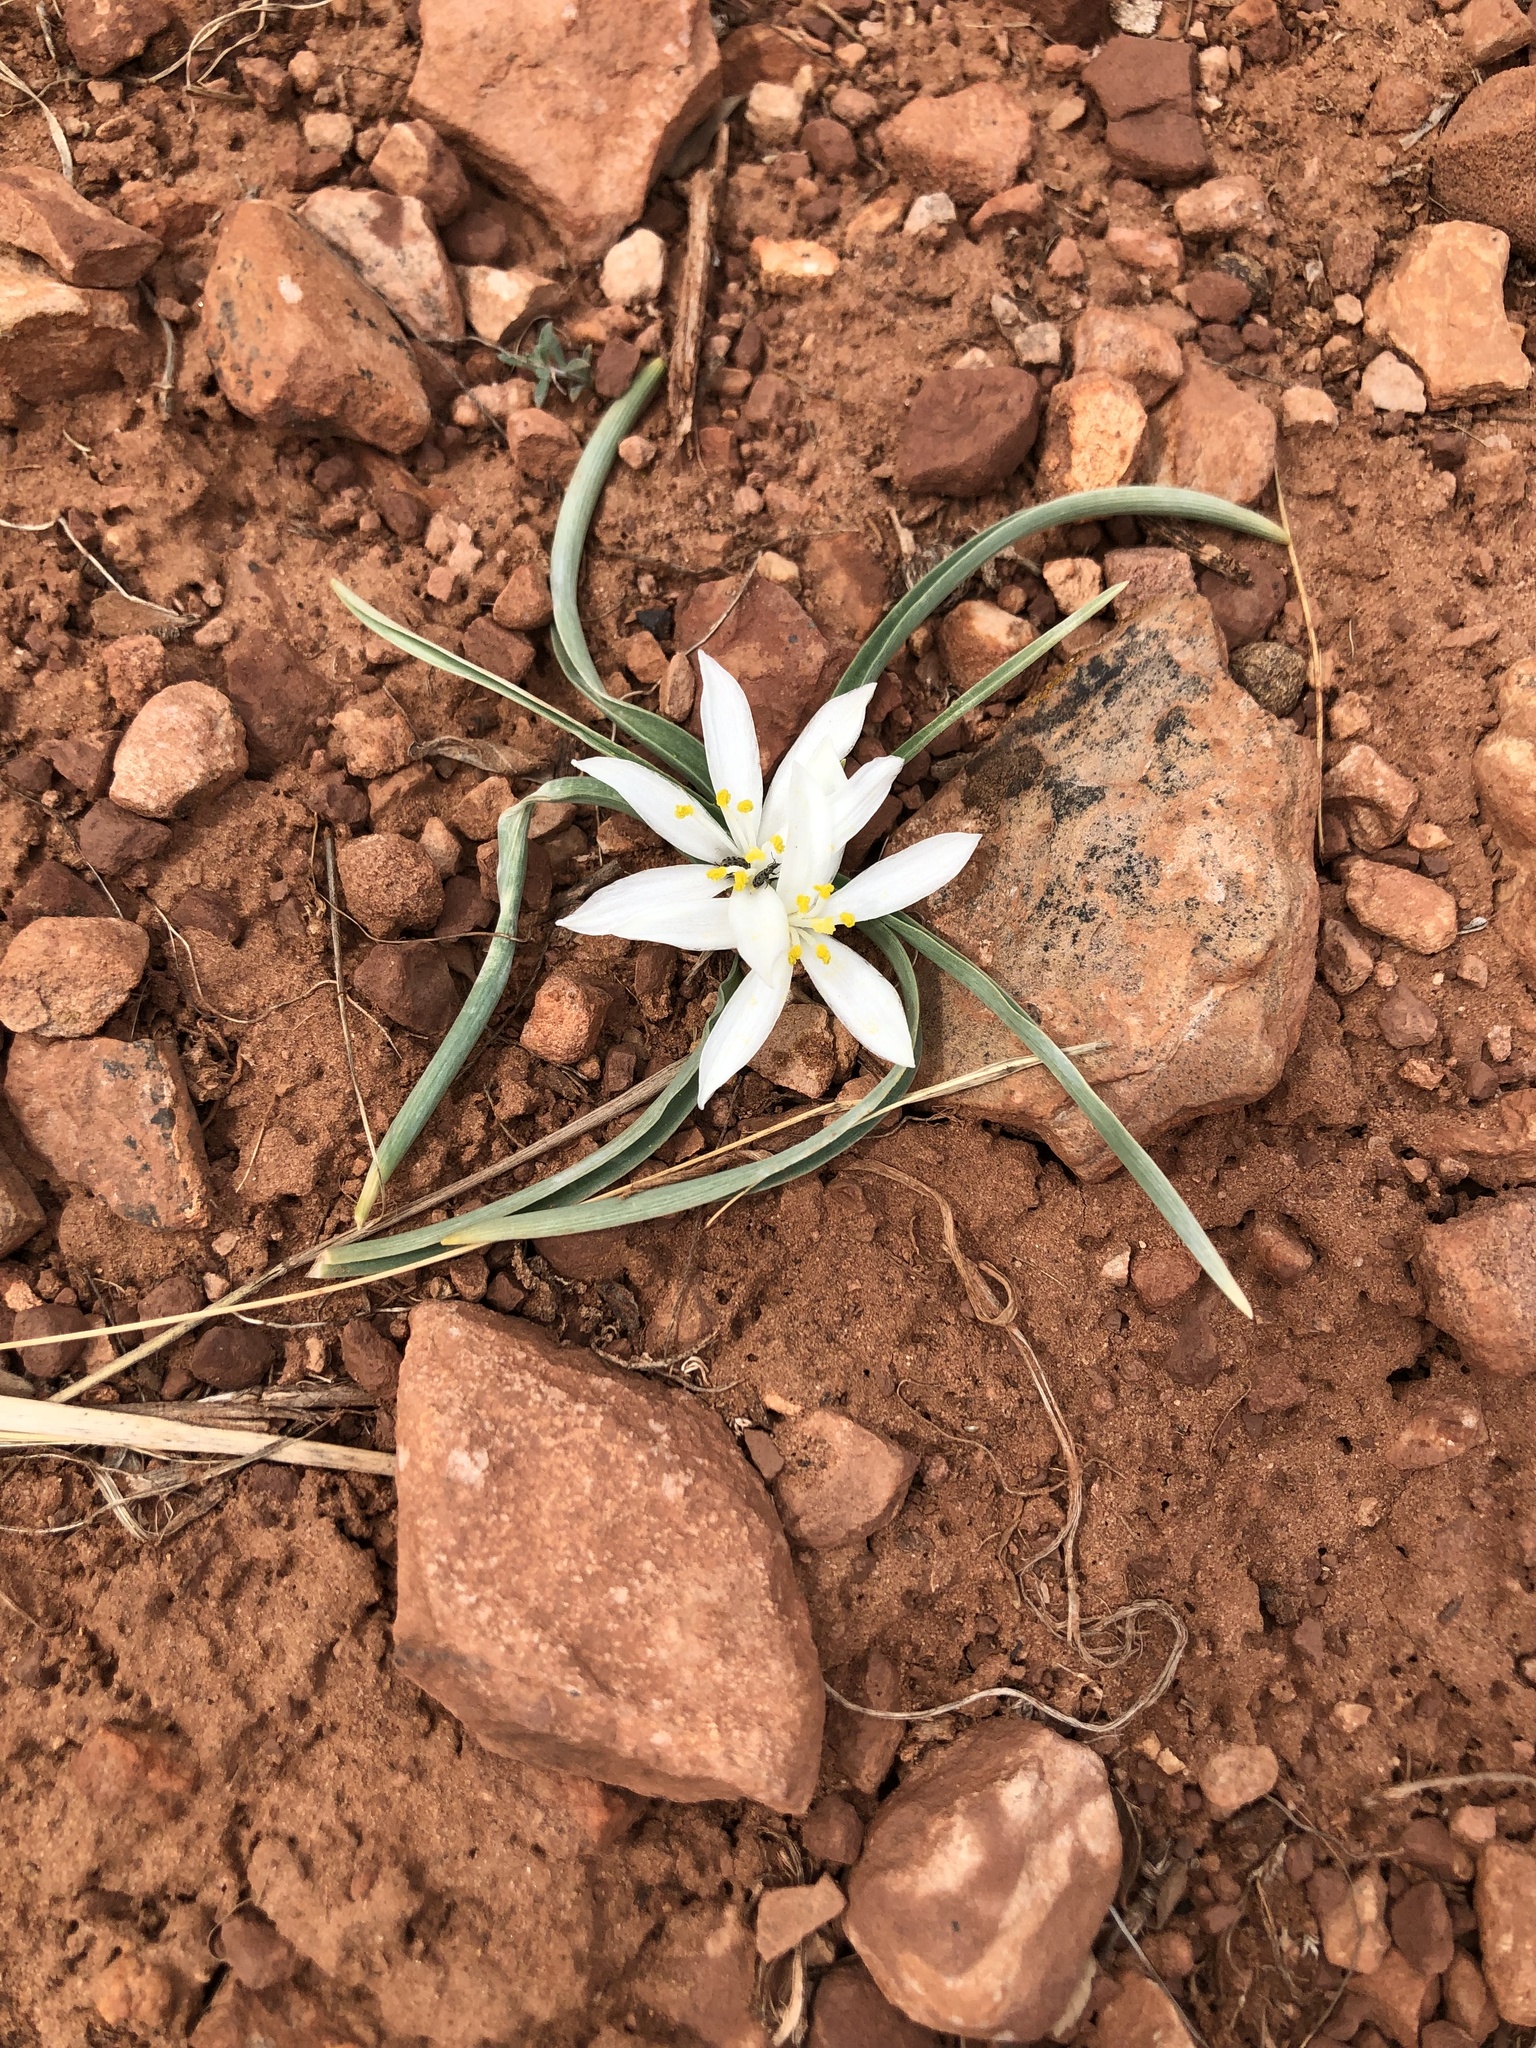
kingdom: Plantae
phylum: Tracheophyta
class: Liliopsida
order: Asparagales
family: Asparagaceae
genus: Leucocrinum
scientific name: Leucocrinum montanum
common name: Mountain-lily
